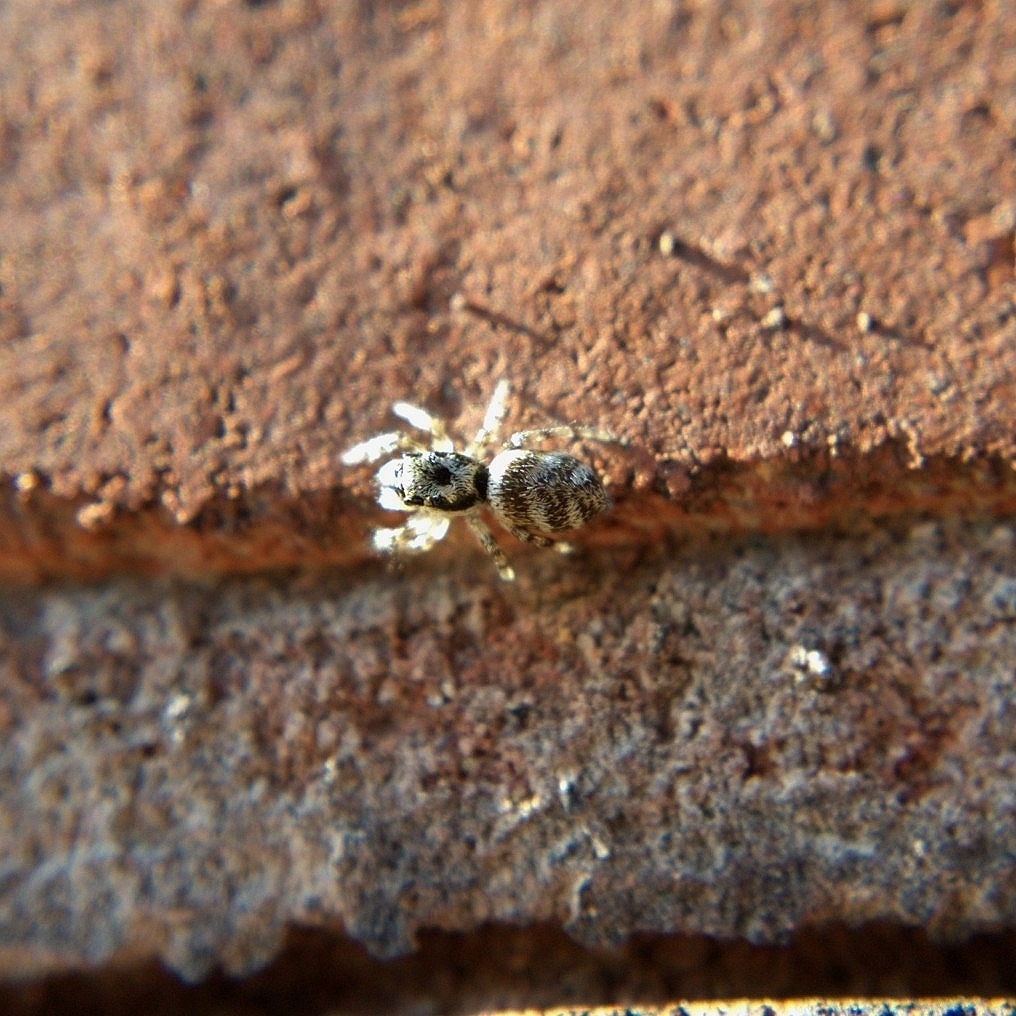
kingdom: Animalia
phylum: Arthropoda
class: Arachnida
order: Araneae
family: Salticidae
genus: Salticus
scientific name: Salticus scenicus
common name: Zebra jumper
